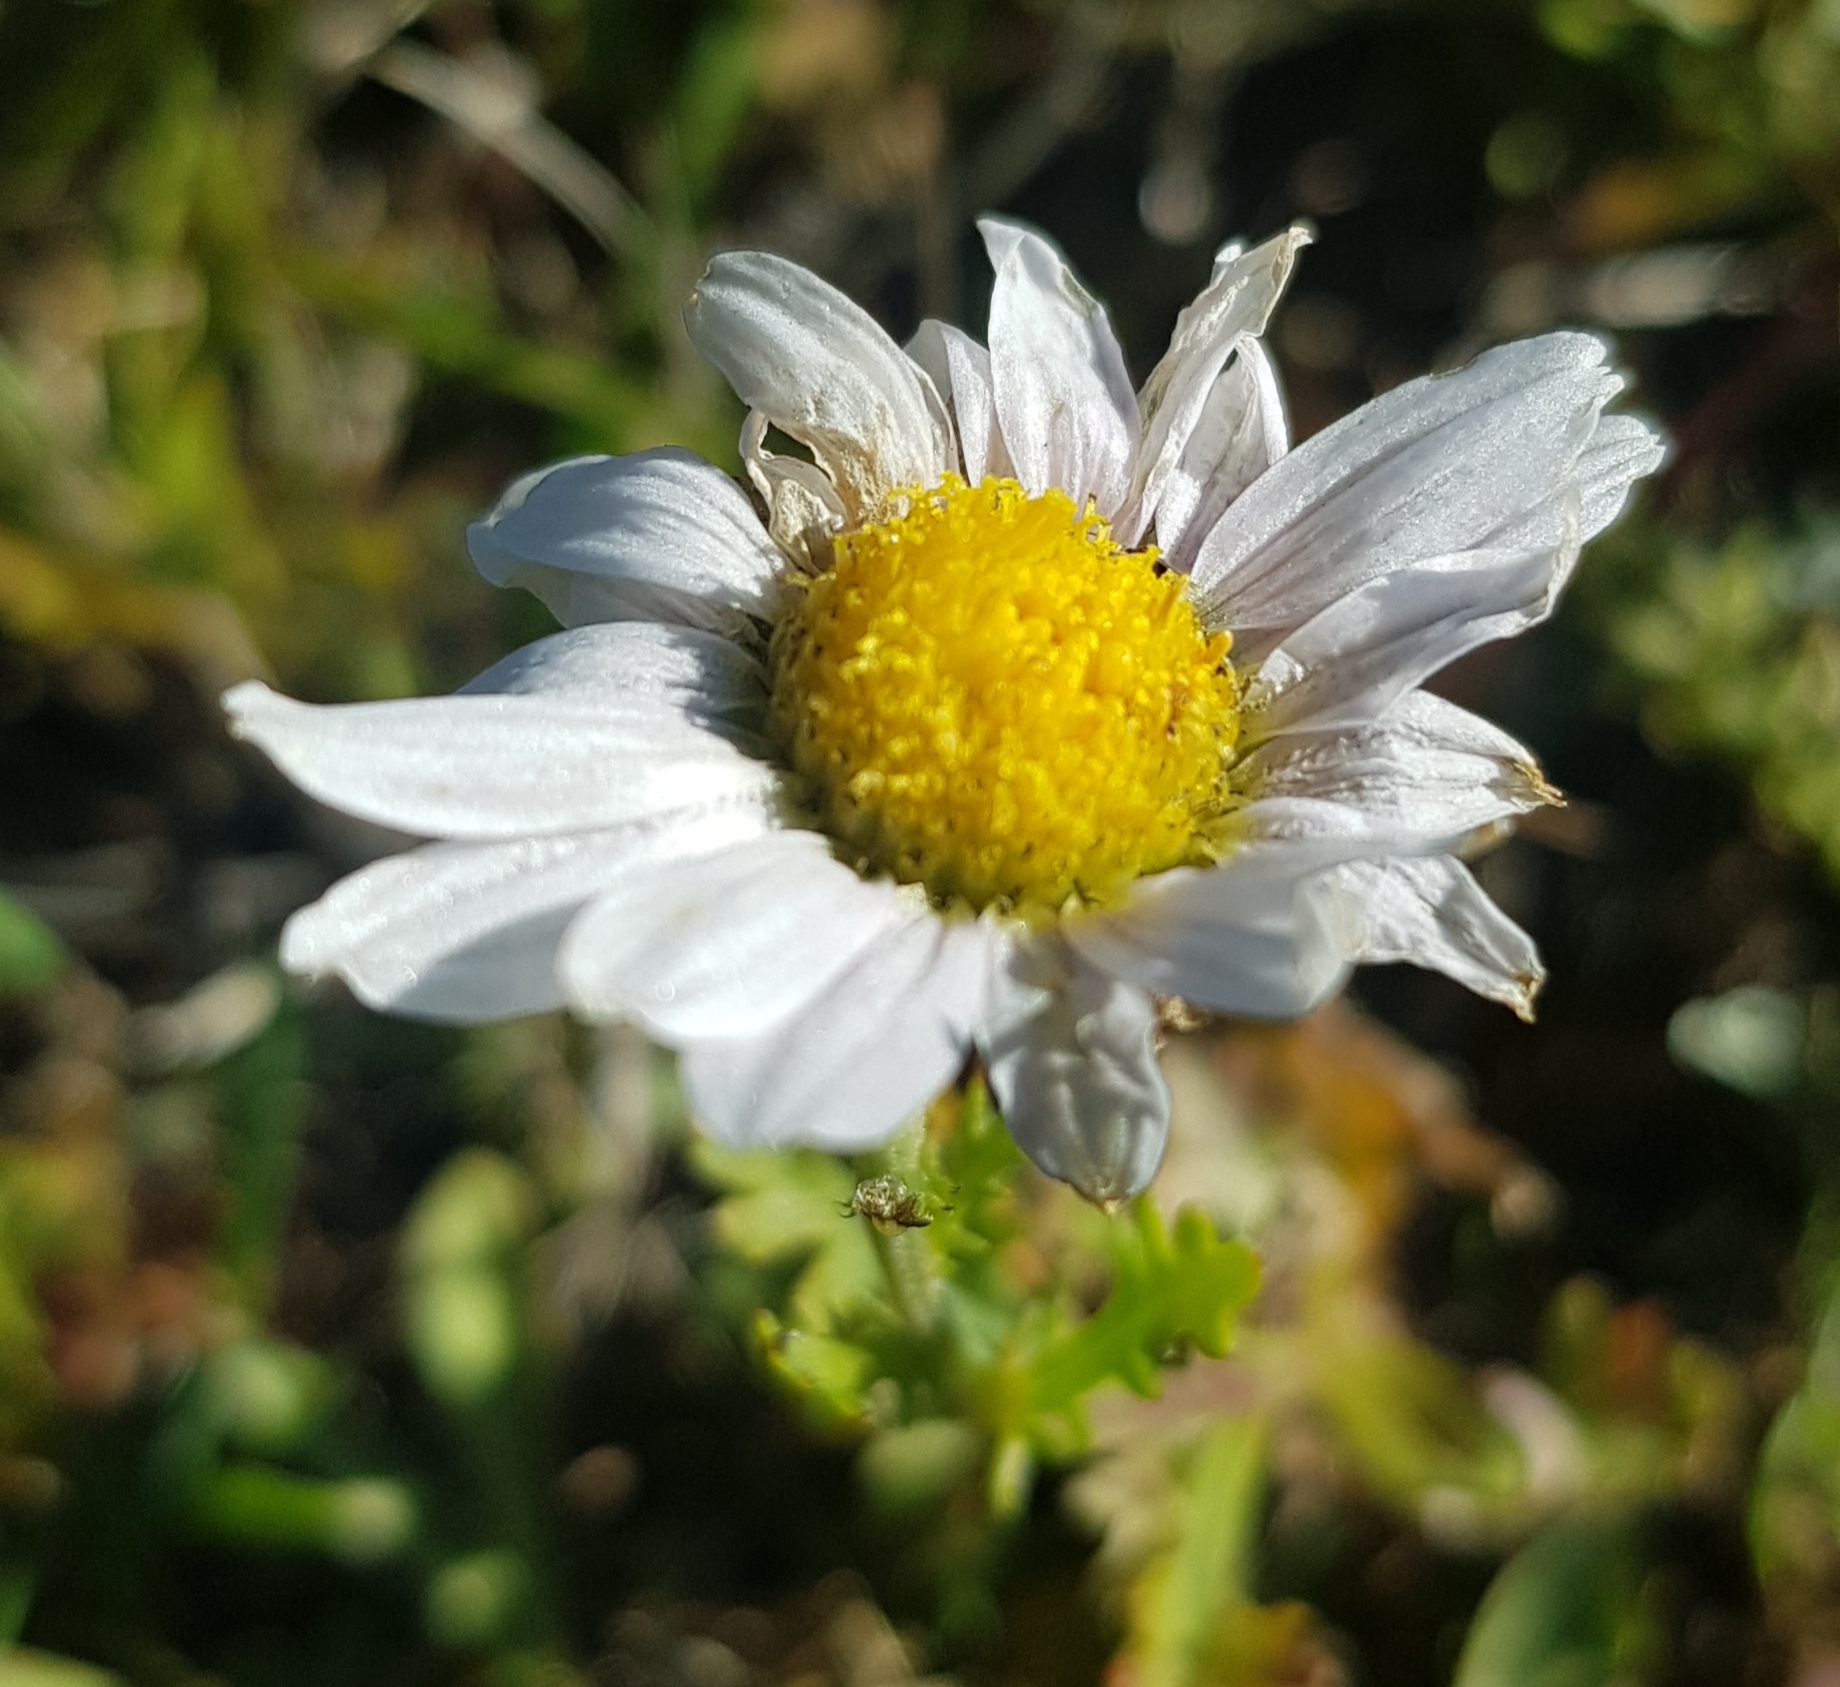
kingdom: Plantae
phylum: Tracheophyta
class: Magnoliopsida
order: Asterales
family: Asteraceae
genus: Chrysanthemum
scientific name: Chrysanthemum zawadzkii
